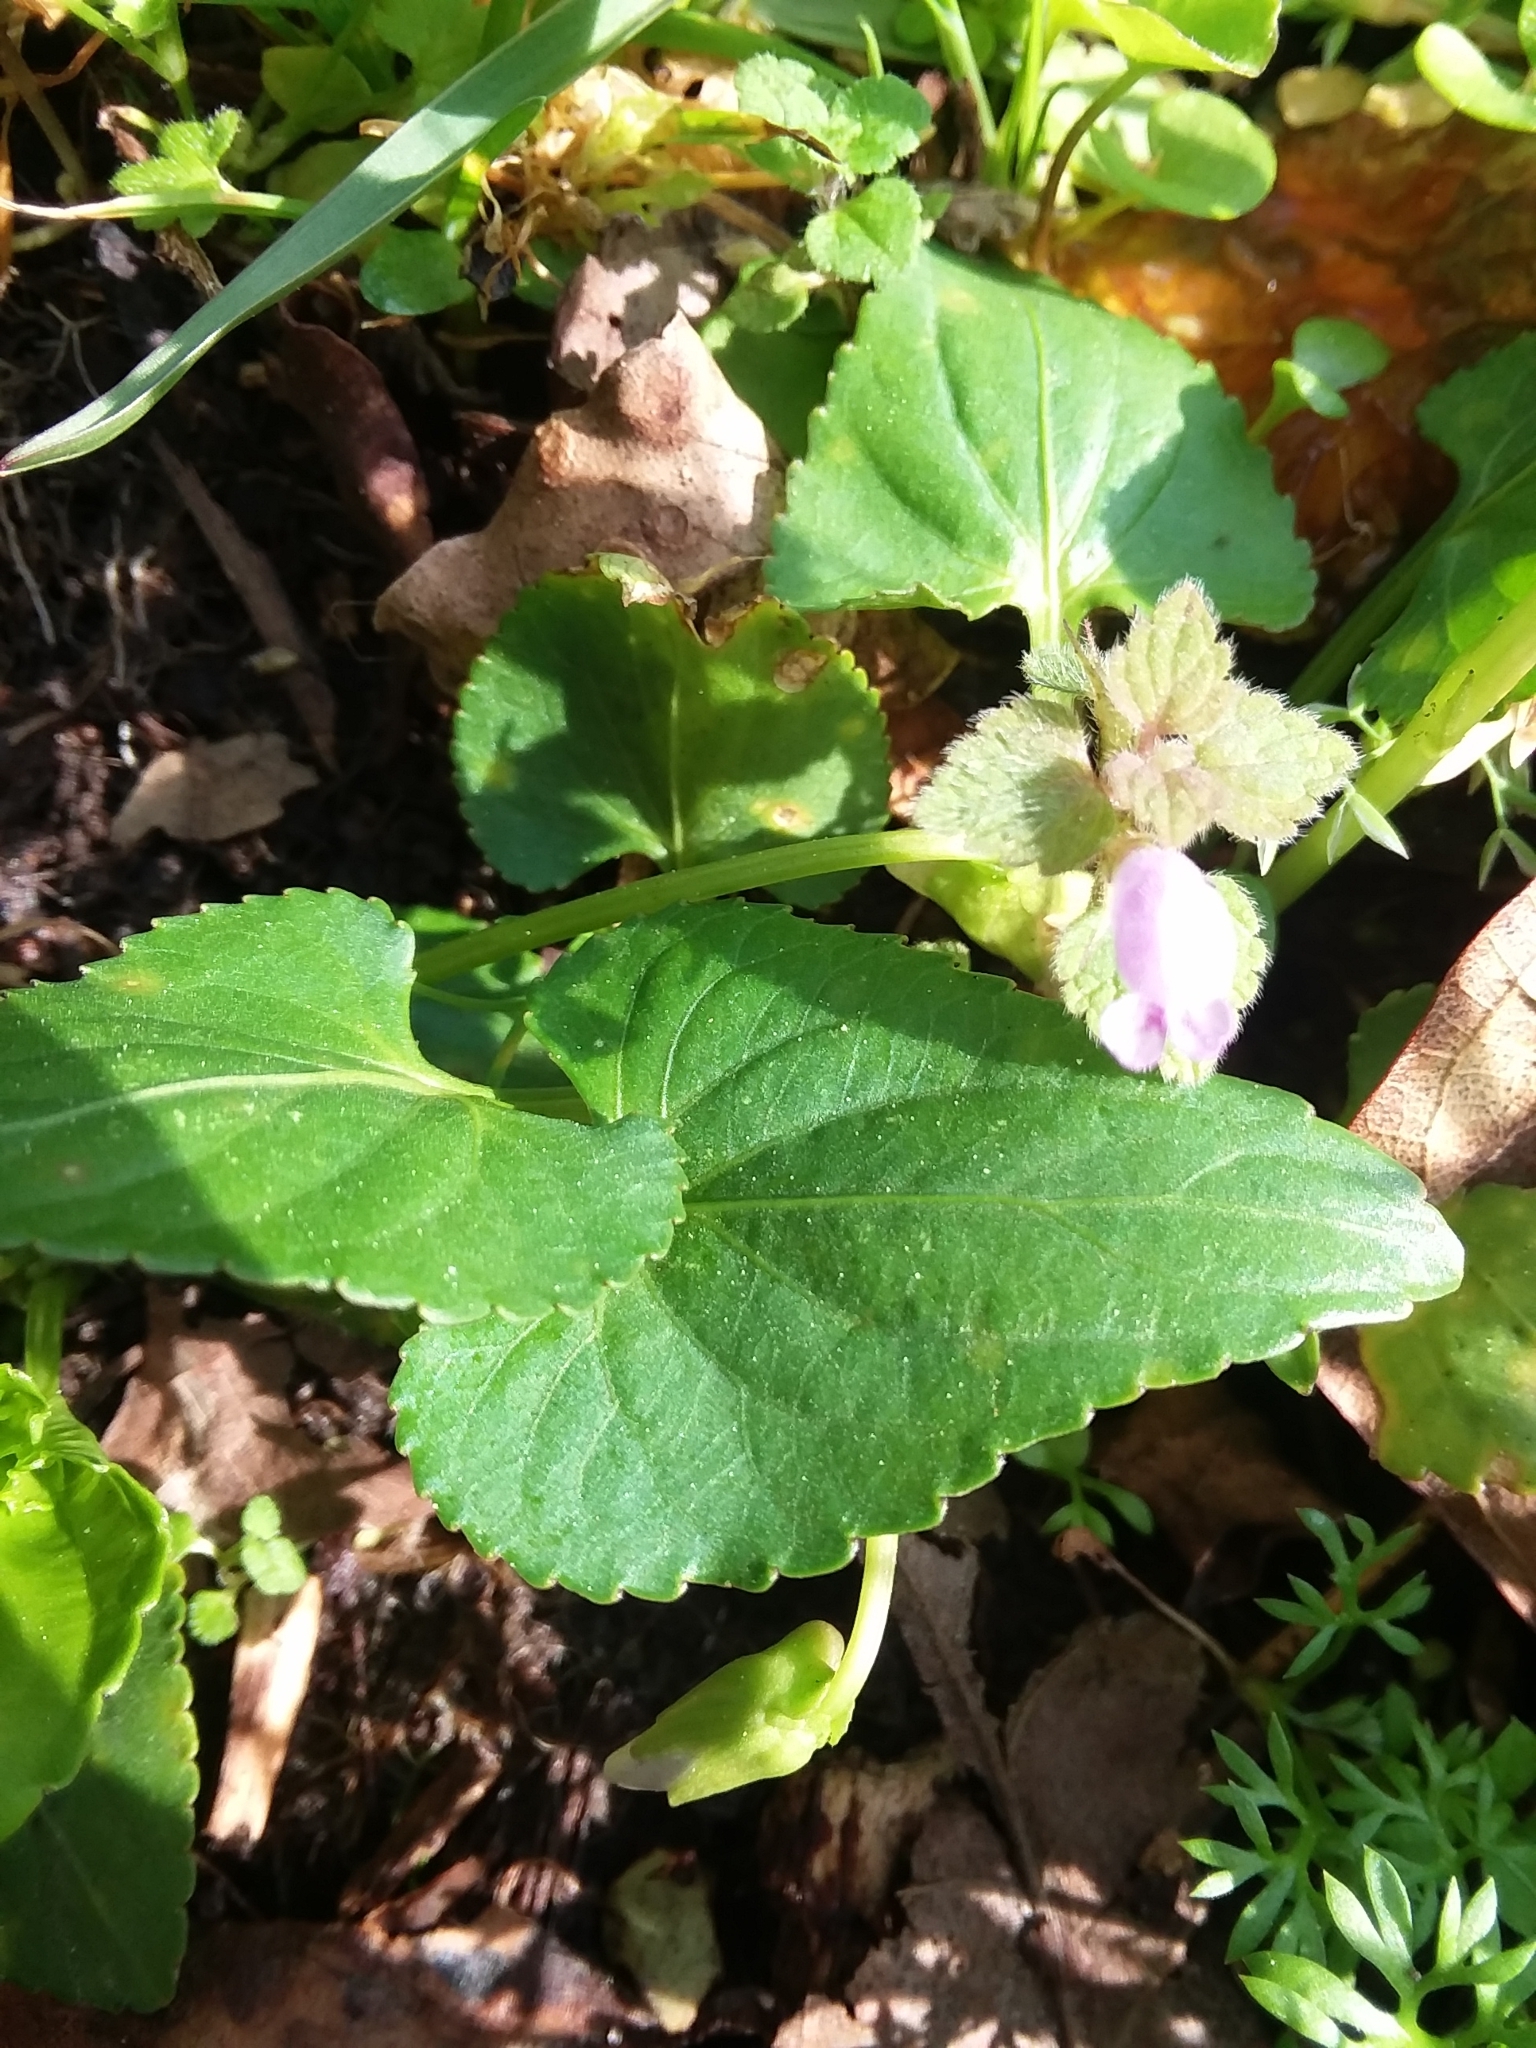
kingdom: Plantae
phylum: Tracheophyta
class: Magnoliopsida
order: Malpighiales
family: Violaceae
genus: Viola
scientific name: Viola sororia
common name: Dooryard violet
